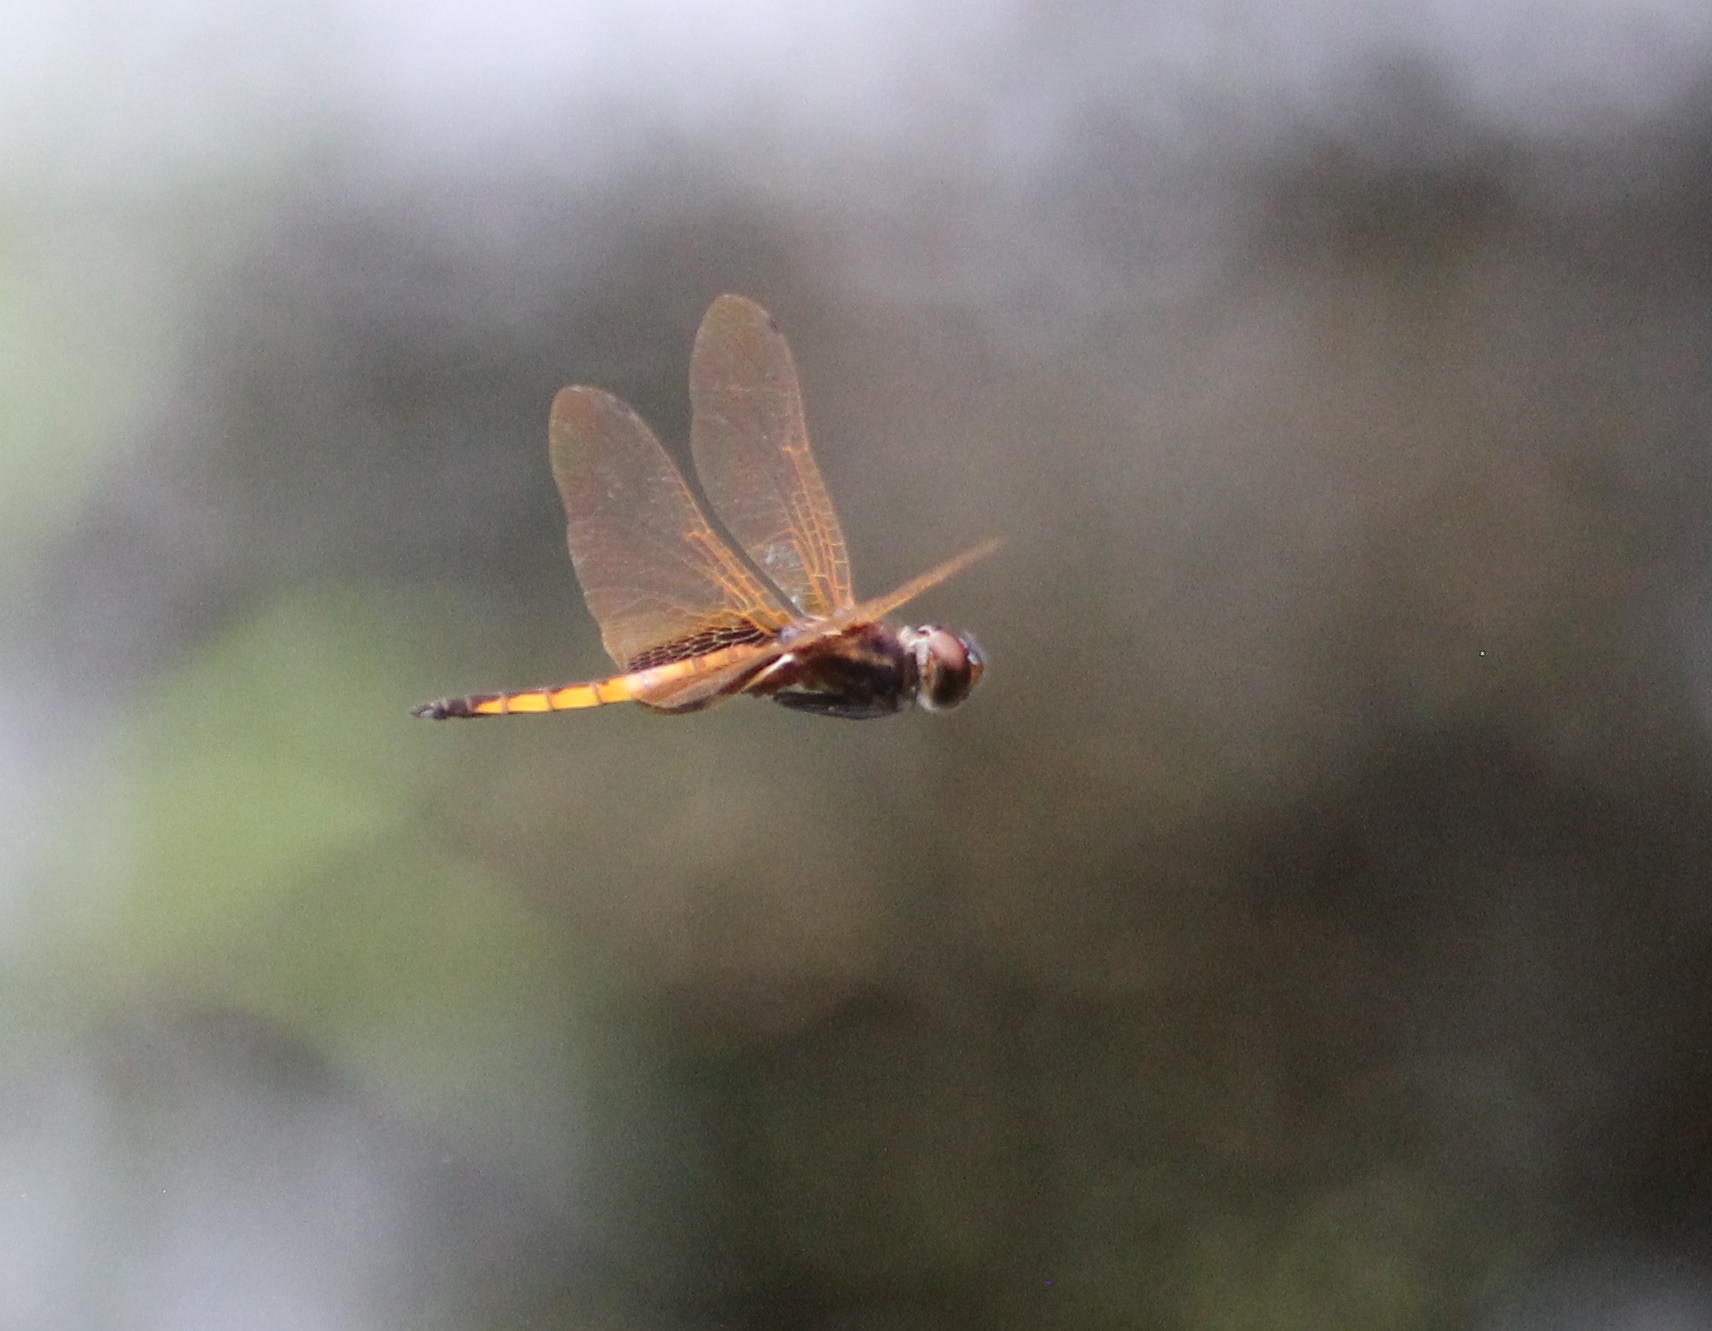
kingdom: Animalia
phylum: Arthropoda
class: Insecta
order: Odonata
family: Libellulidae
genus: Miathyria
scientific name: Miathyria marcella
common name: Hyacinth glider
